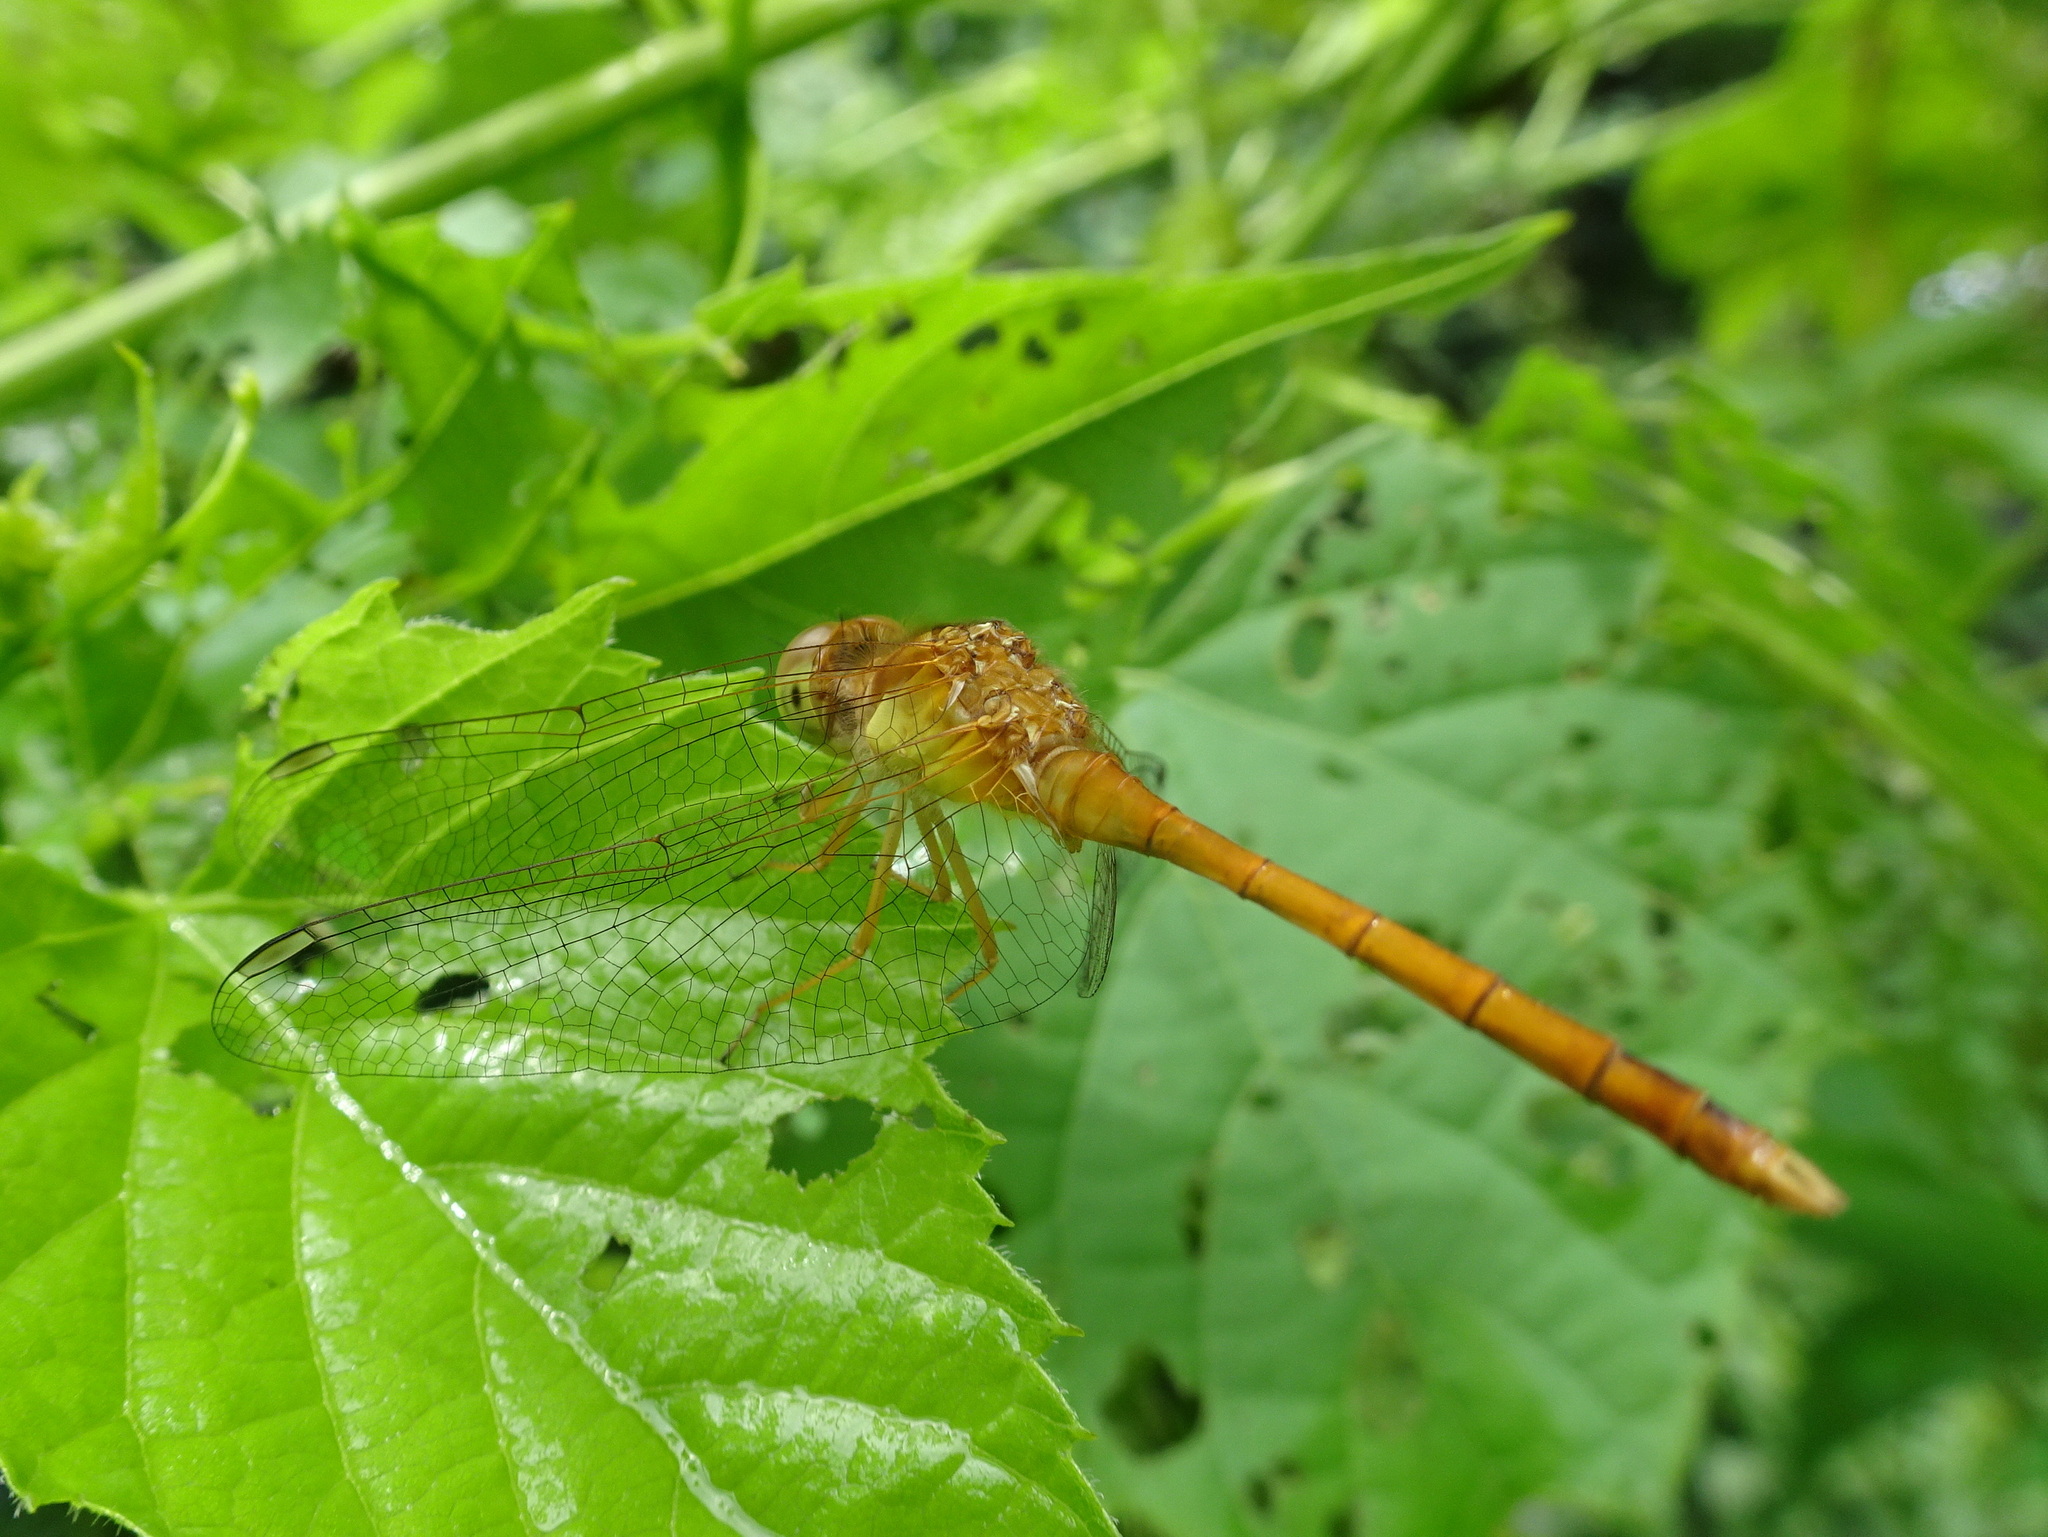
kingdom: Animalia
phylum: Arthropoda
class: Insecta
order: Odonata
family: Libellulidae
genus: Sympetrum
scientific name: Sympetrum vicinum
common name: Autumn meadowhawk
